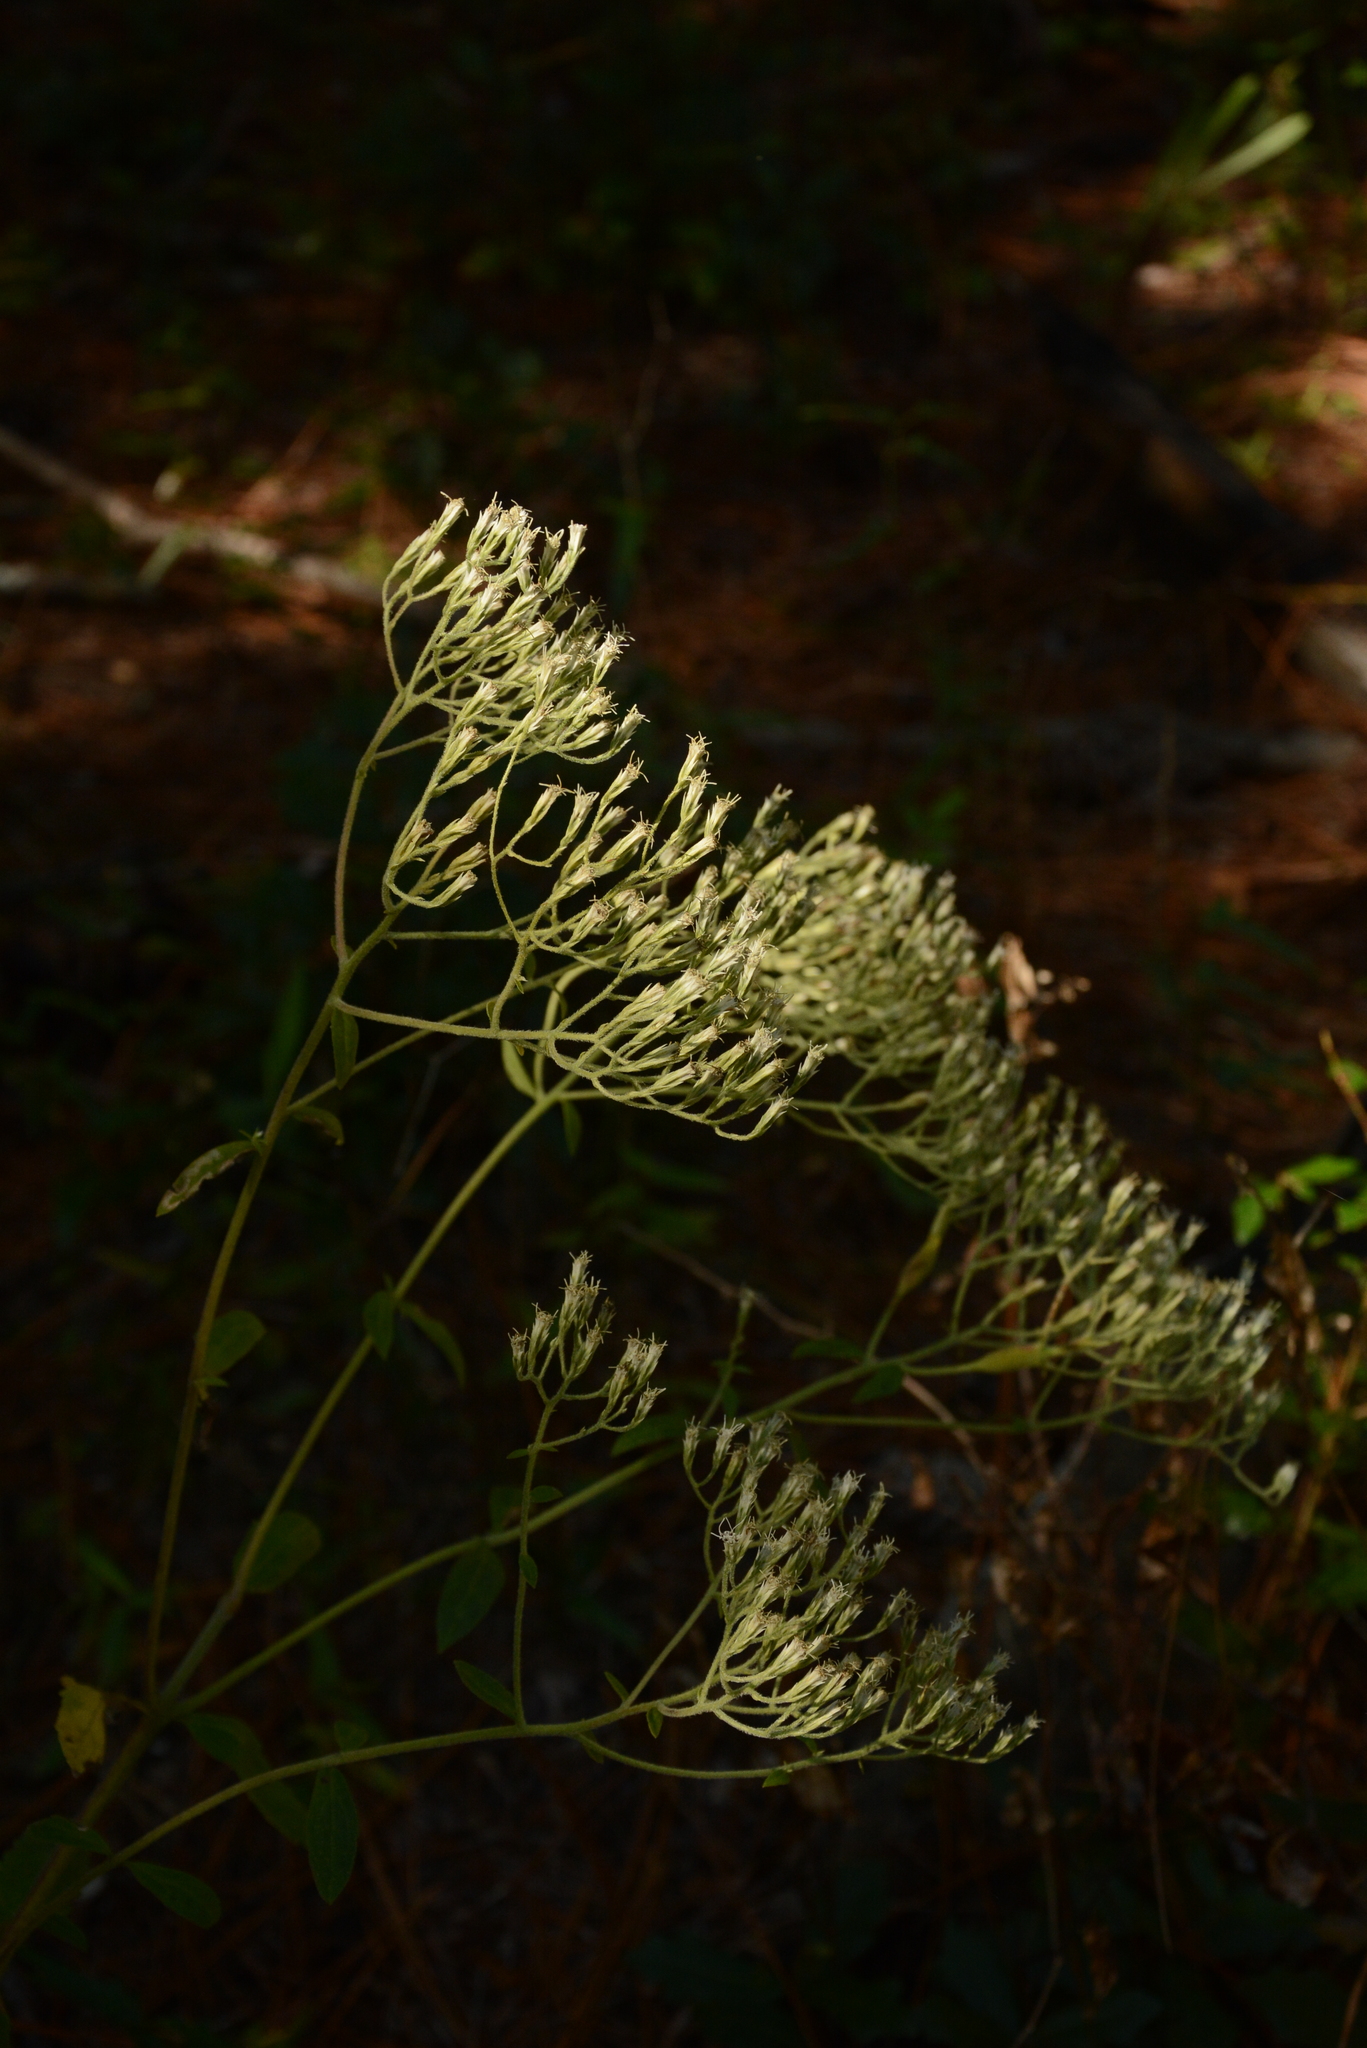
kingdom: Plantae
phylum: Tracheophyta
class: Magnoliopsida
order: Asterales
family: Asteraceae
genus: Eupatorium
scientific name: Eupatorium petaloideum
